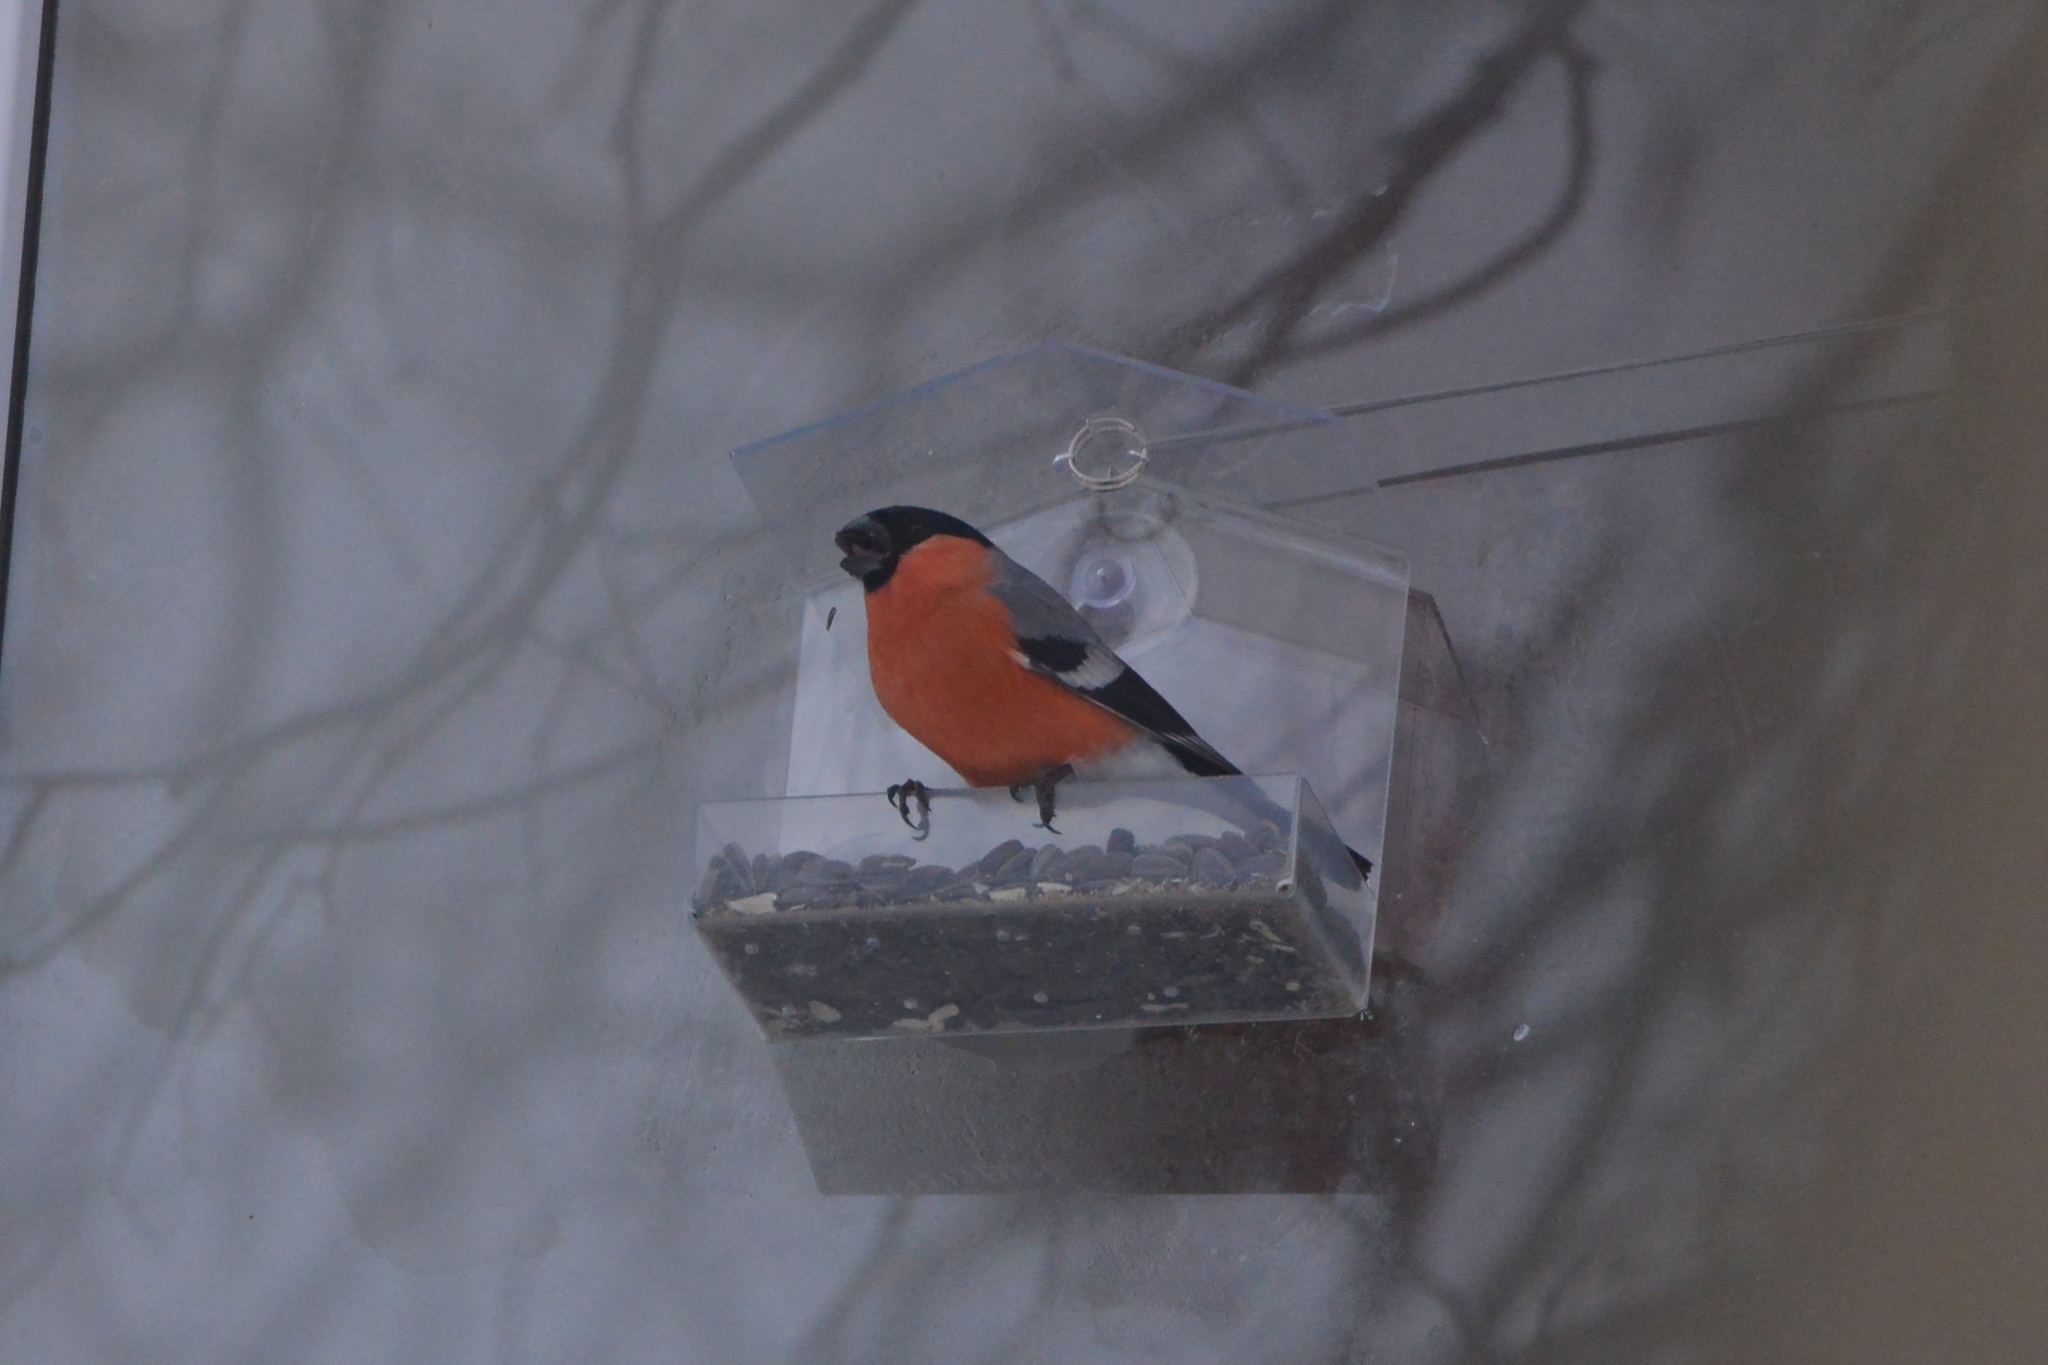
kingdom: Animalia
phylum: Chordata
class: Aves
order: Passeriformes
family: Fringillidae
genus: Pyrrhula
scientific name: Pyrrhula pyrrhula
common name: Eurasian bullfinch
